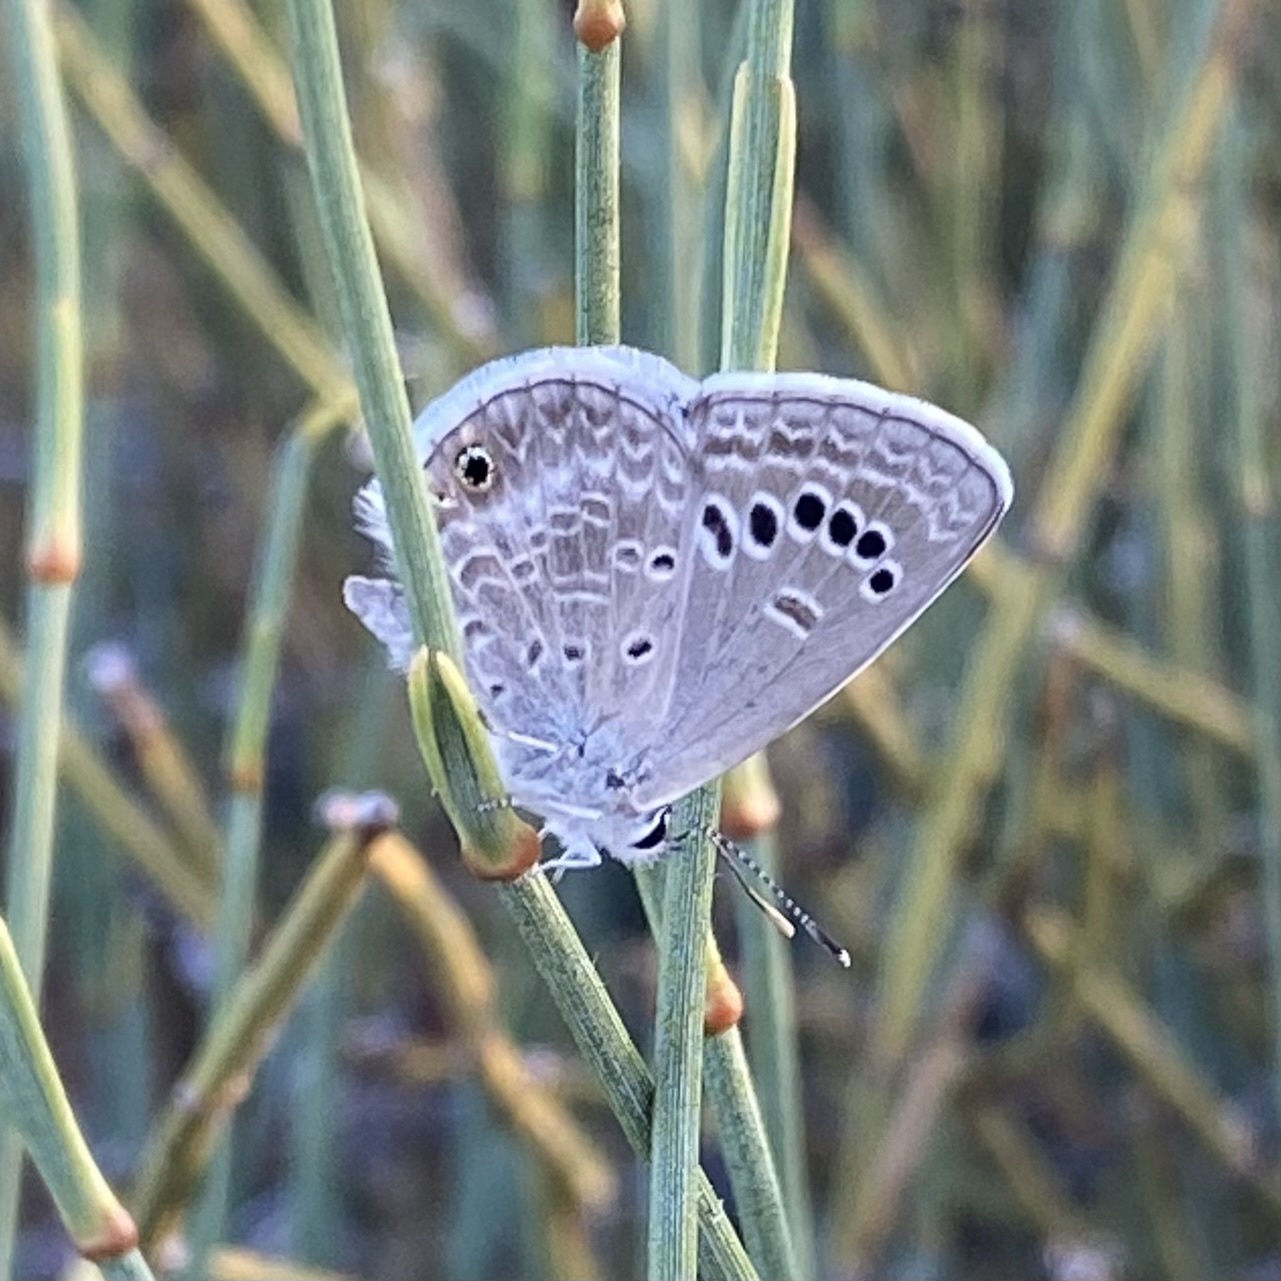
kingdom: Animalia
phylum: Arthropoda
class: Insecta
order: Lepidoptera
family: Lycaenidae
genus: Echinargus
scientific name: Echinargus isola
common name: Reakirt's blue
